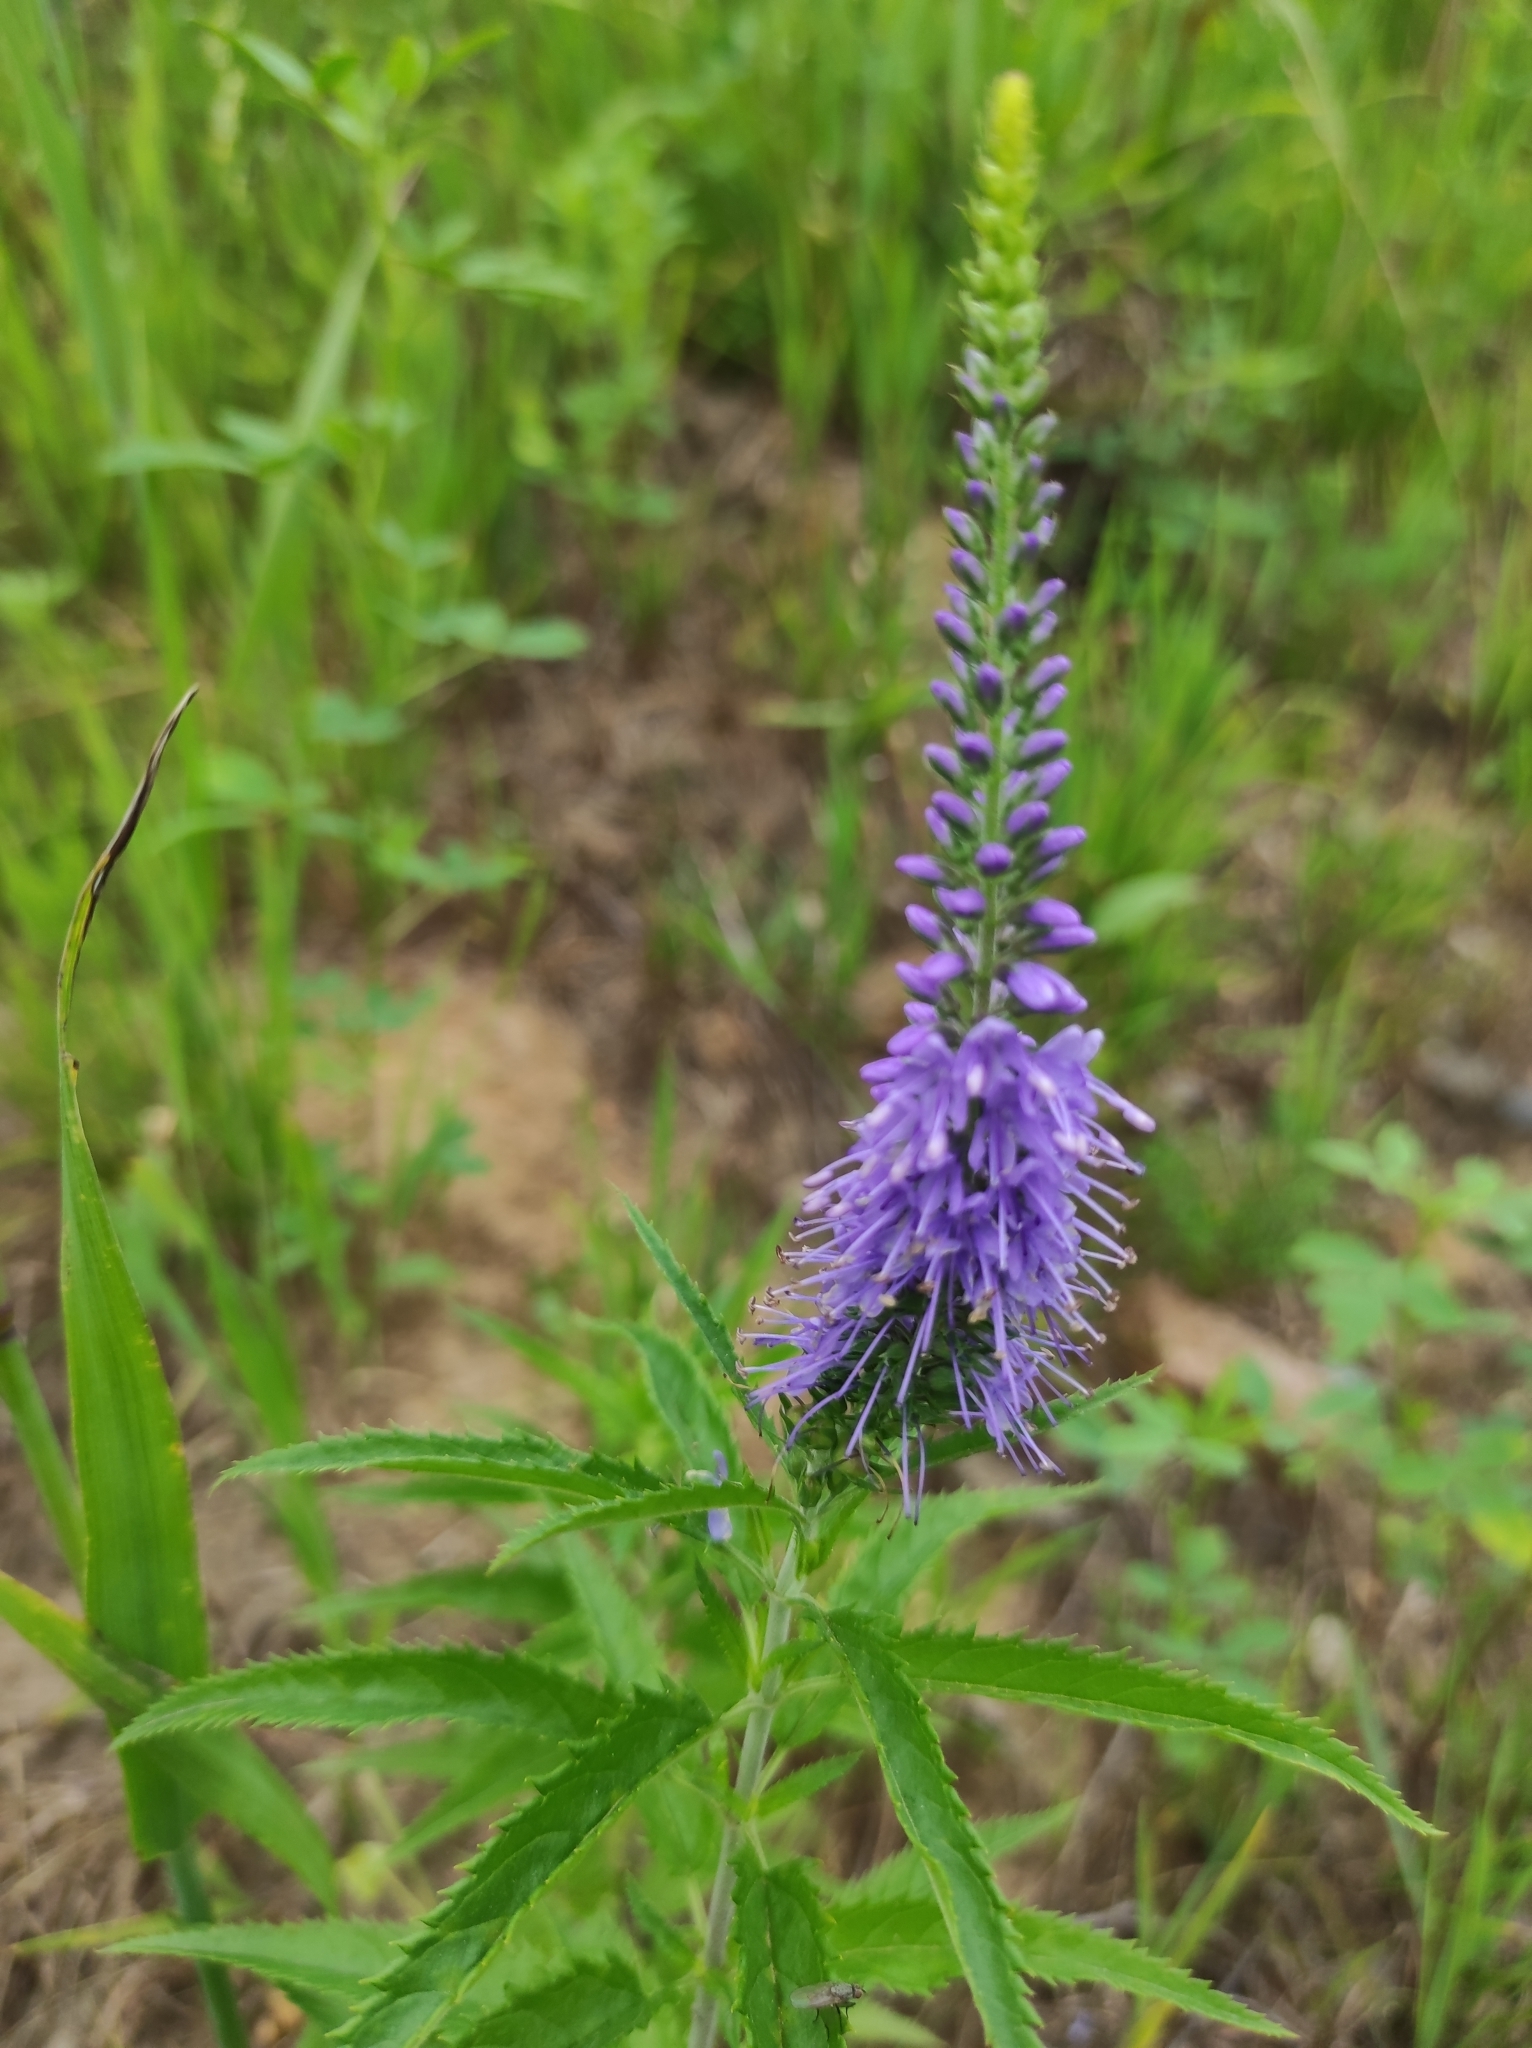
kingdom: Plantae
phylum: Tracheophyta
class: Magnoliopsida
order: Lamiales
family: Plantaginaceae
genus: Veronica
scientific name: Veronica longifolia
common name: Garden speedwell
